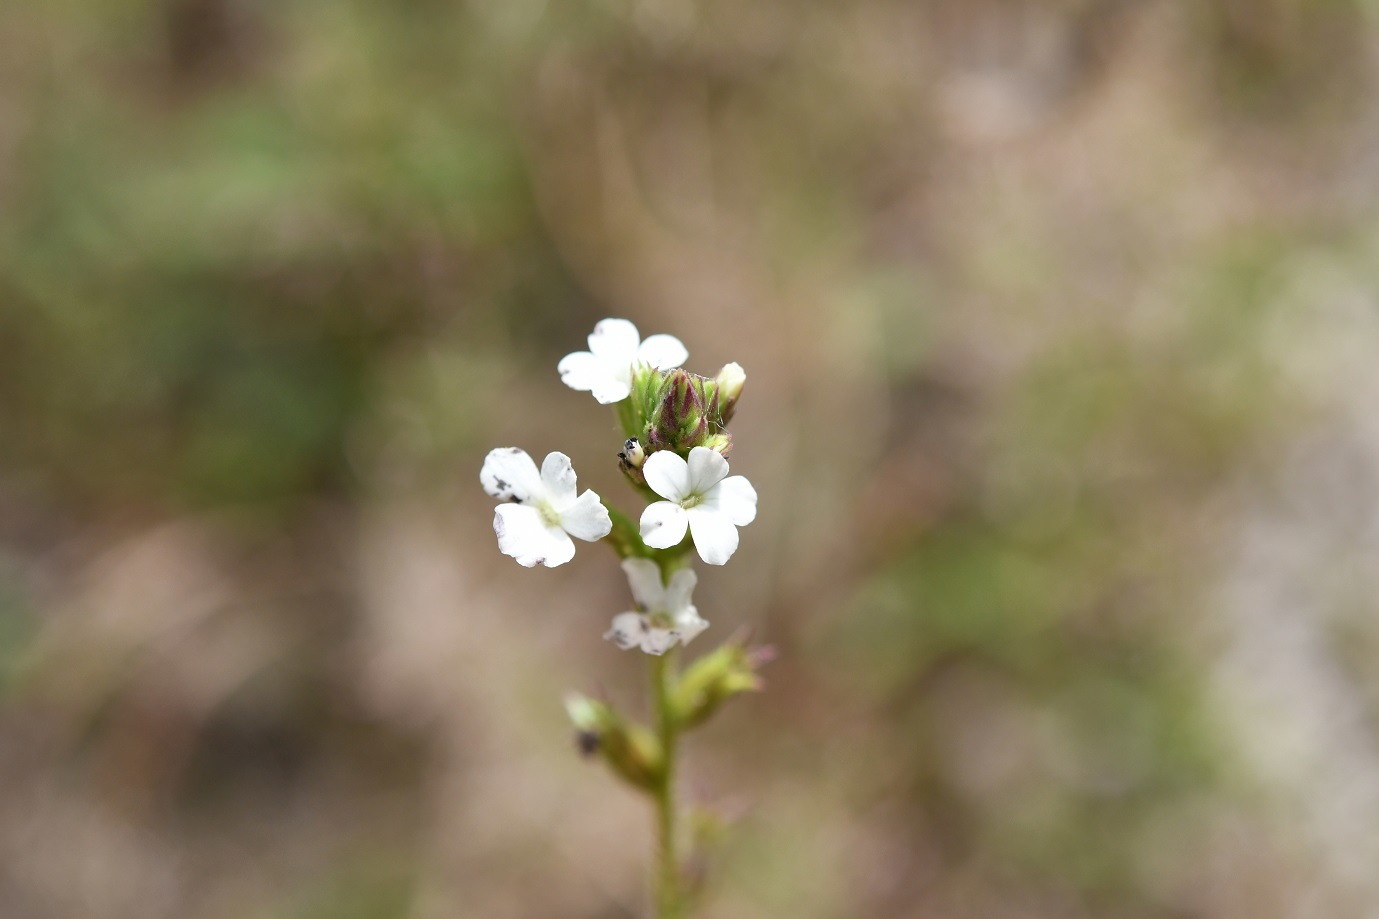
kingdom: Plantae
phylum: Tracheophyta
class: Magnoliopsida
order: Lamiales
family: Orobanchaceae
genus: Buchnera
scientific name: Buchnera pusilla
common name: Pygmy bluehearts
